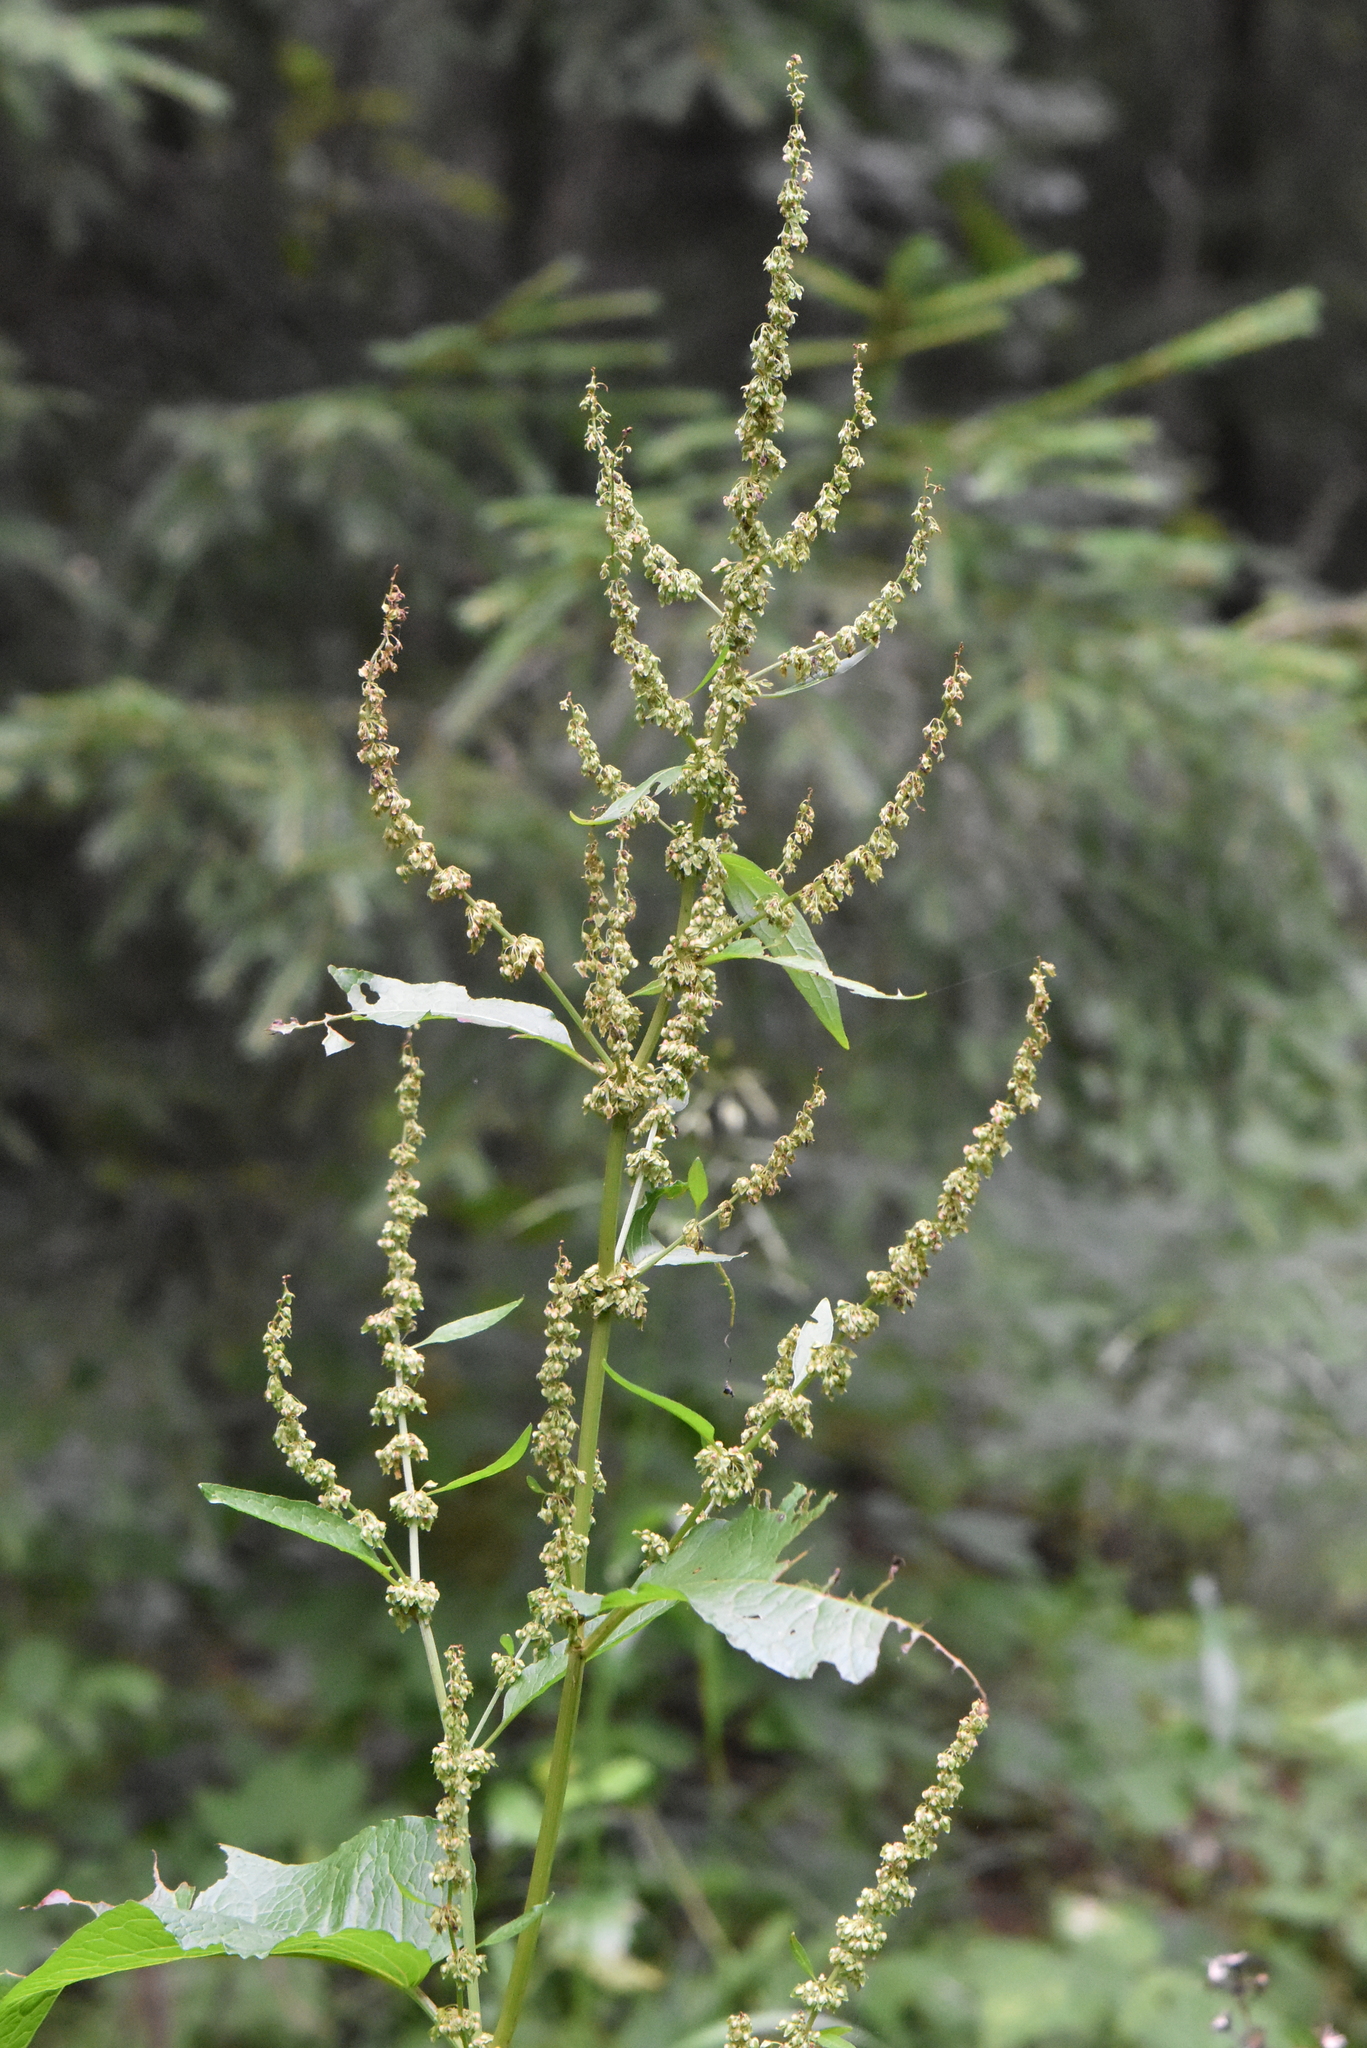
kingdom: Plantae
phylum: Tracheophyta
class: Magnoliopsida
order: Caryophyllales
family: Polygonaceae
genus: Rumex
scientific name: Rumex obtusifolius
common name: Bitter dock
